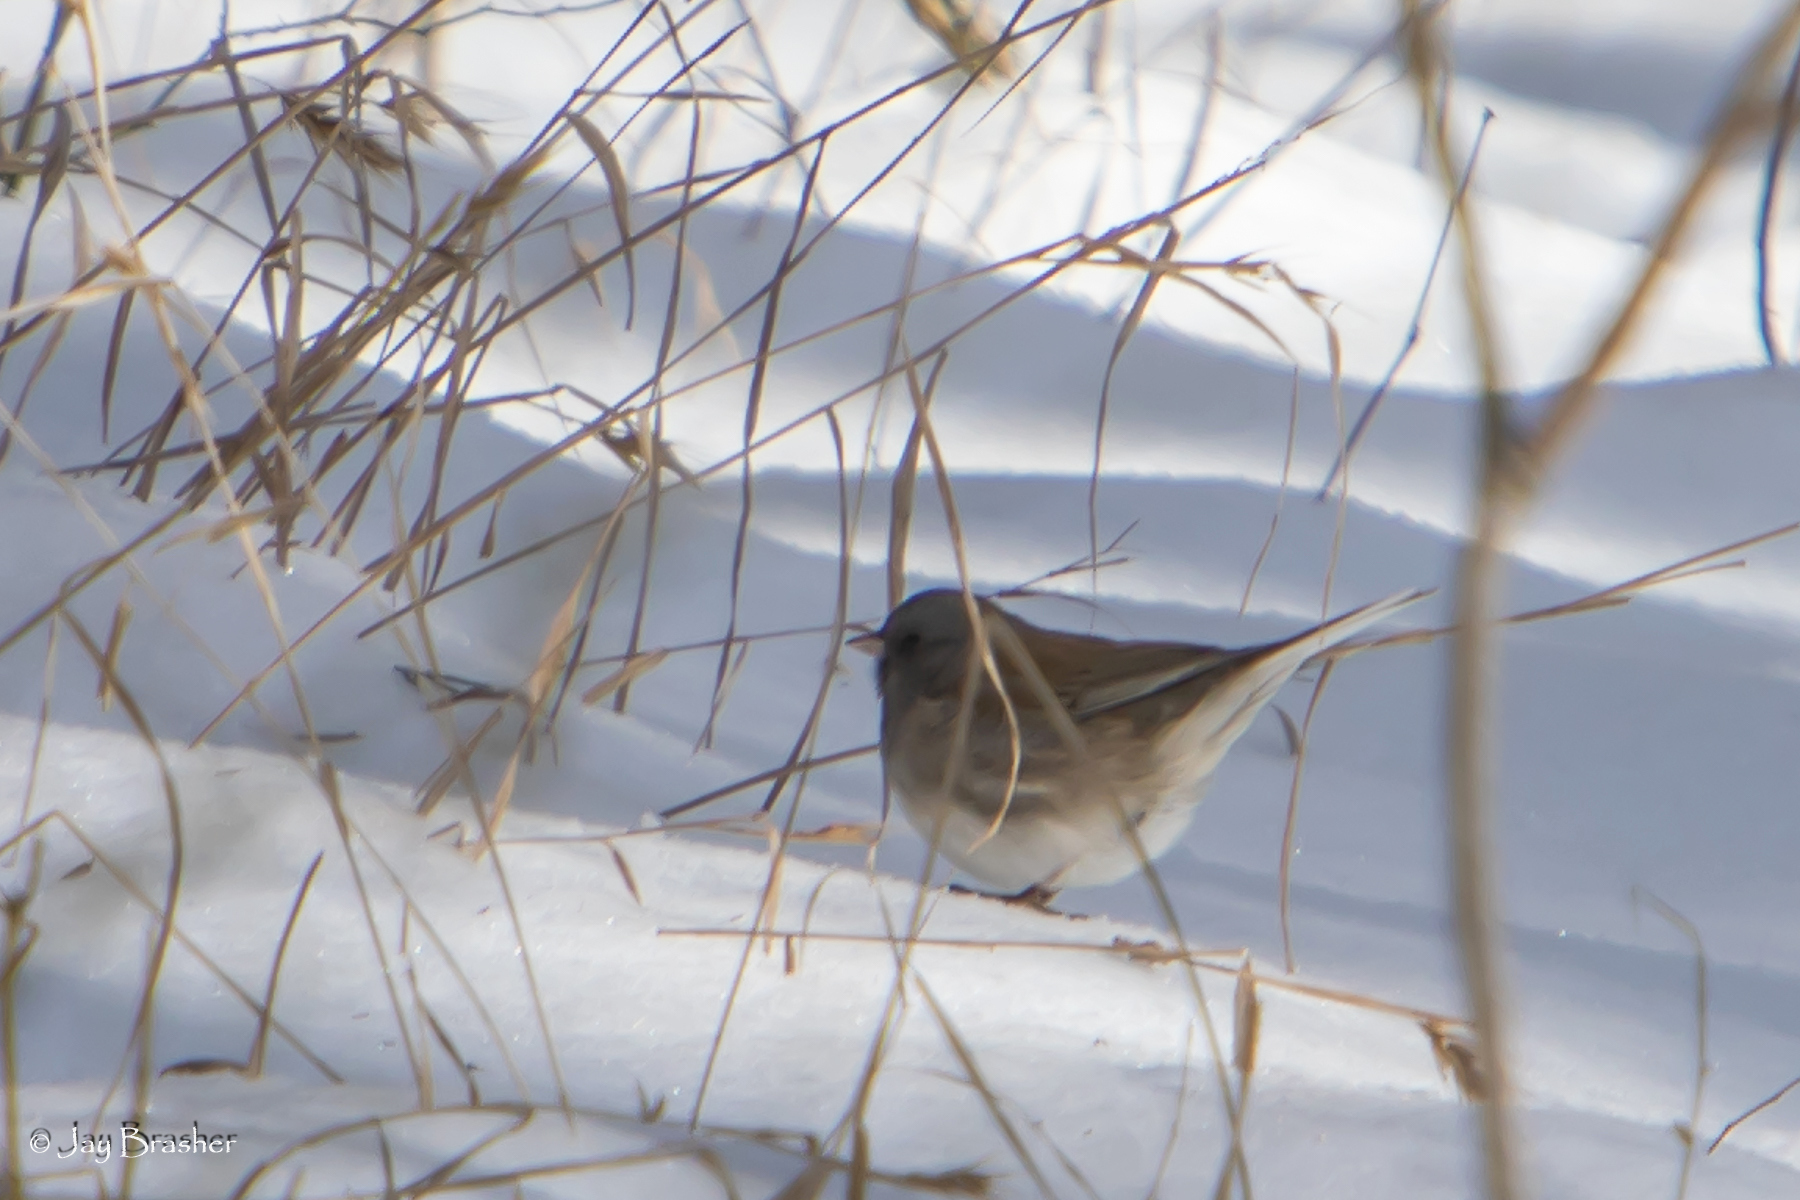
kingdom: Animalia
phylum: Chordata
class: Aves
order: Passeriformes
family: Passerellidae
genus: Junco
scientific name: Junco hyemalis
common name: Dark-eyed junco
